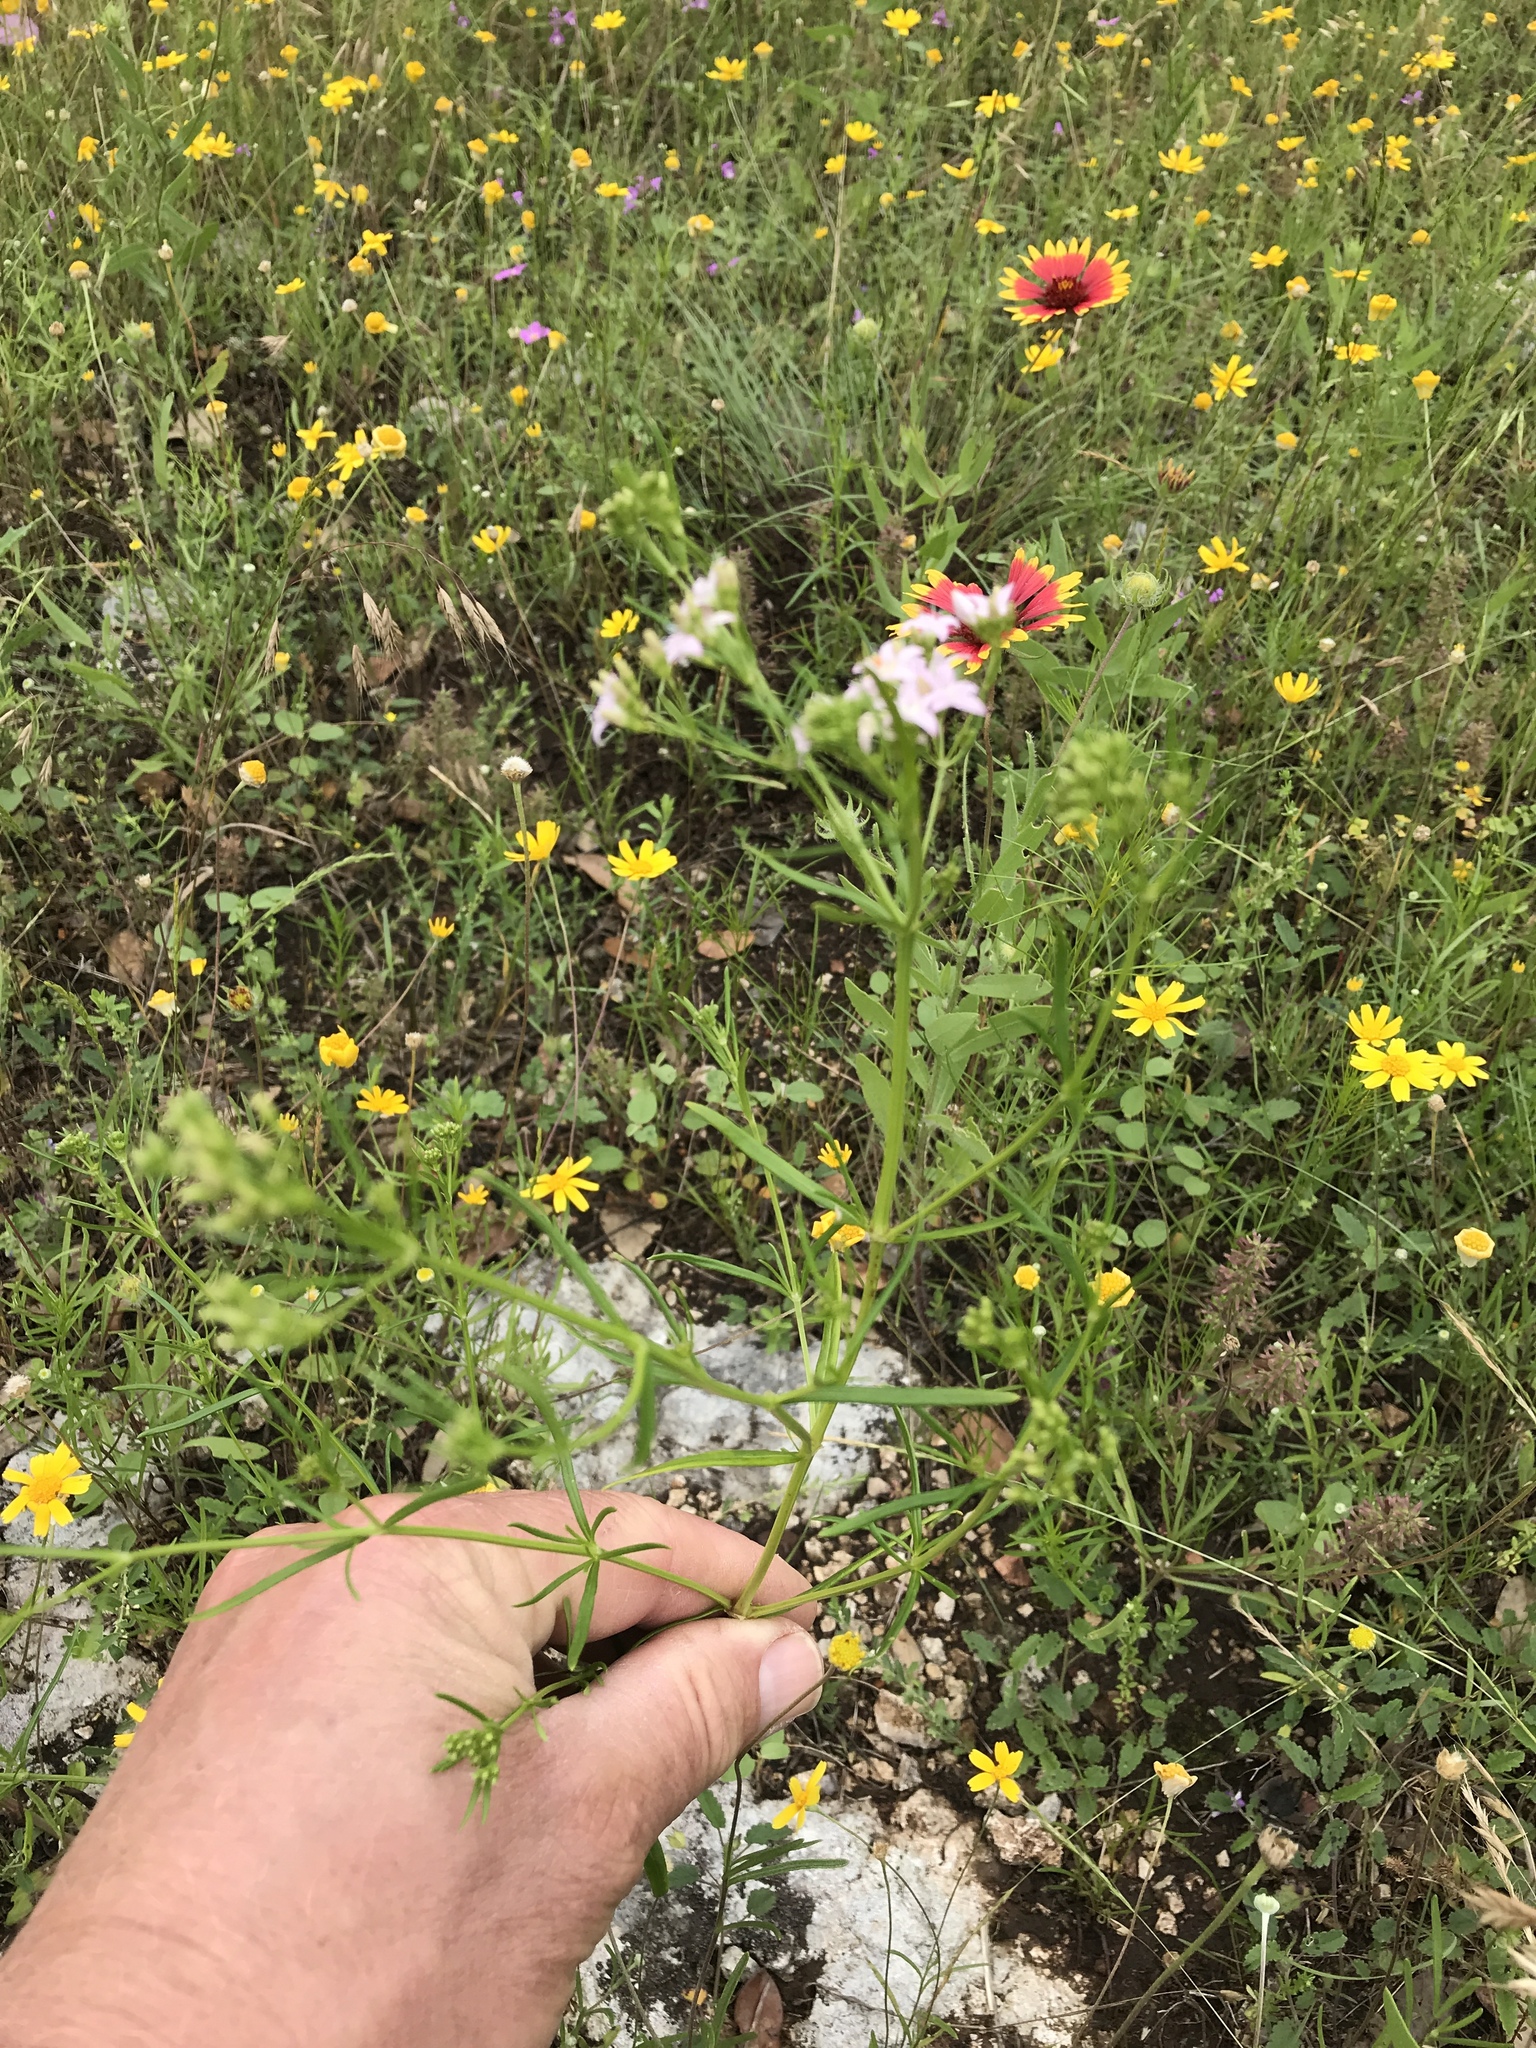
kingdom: Plantae
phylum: Tracheophyta
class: Magnoliopsida
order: Gentianales
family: Rubiaceae
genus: Stenaria
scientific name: Stenaria nigricans
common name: Diamondflowers
